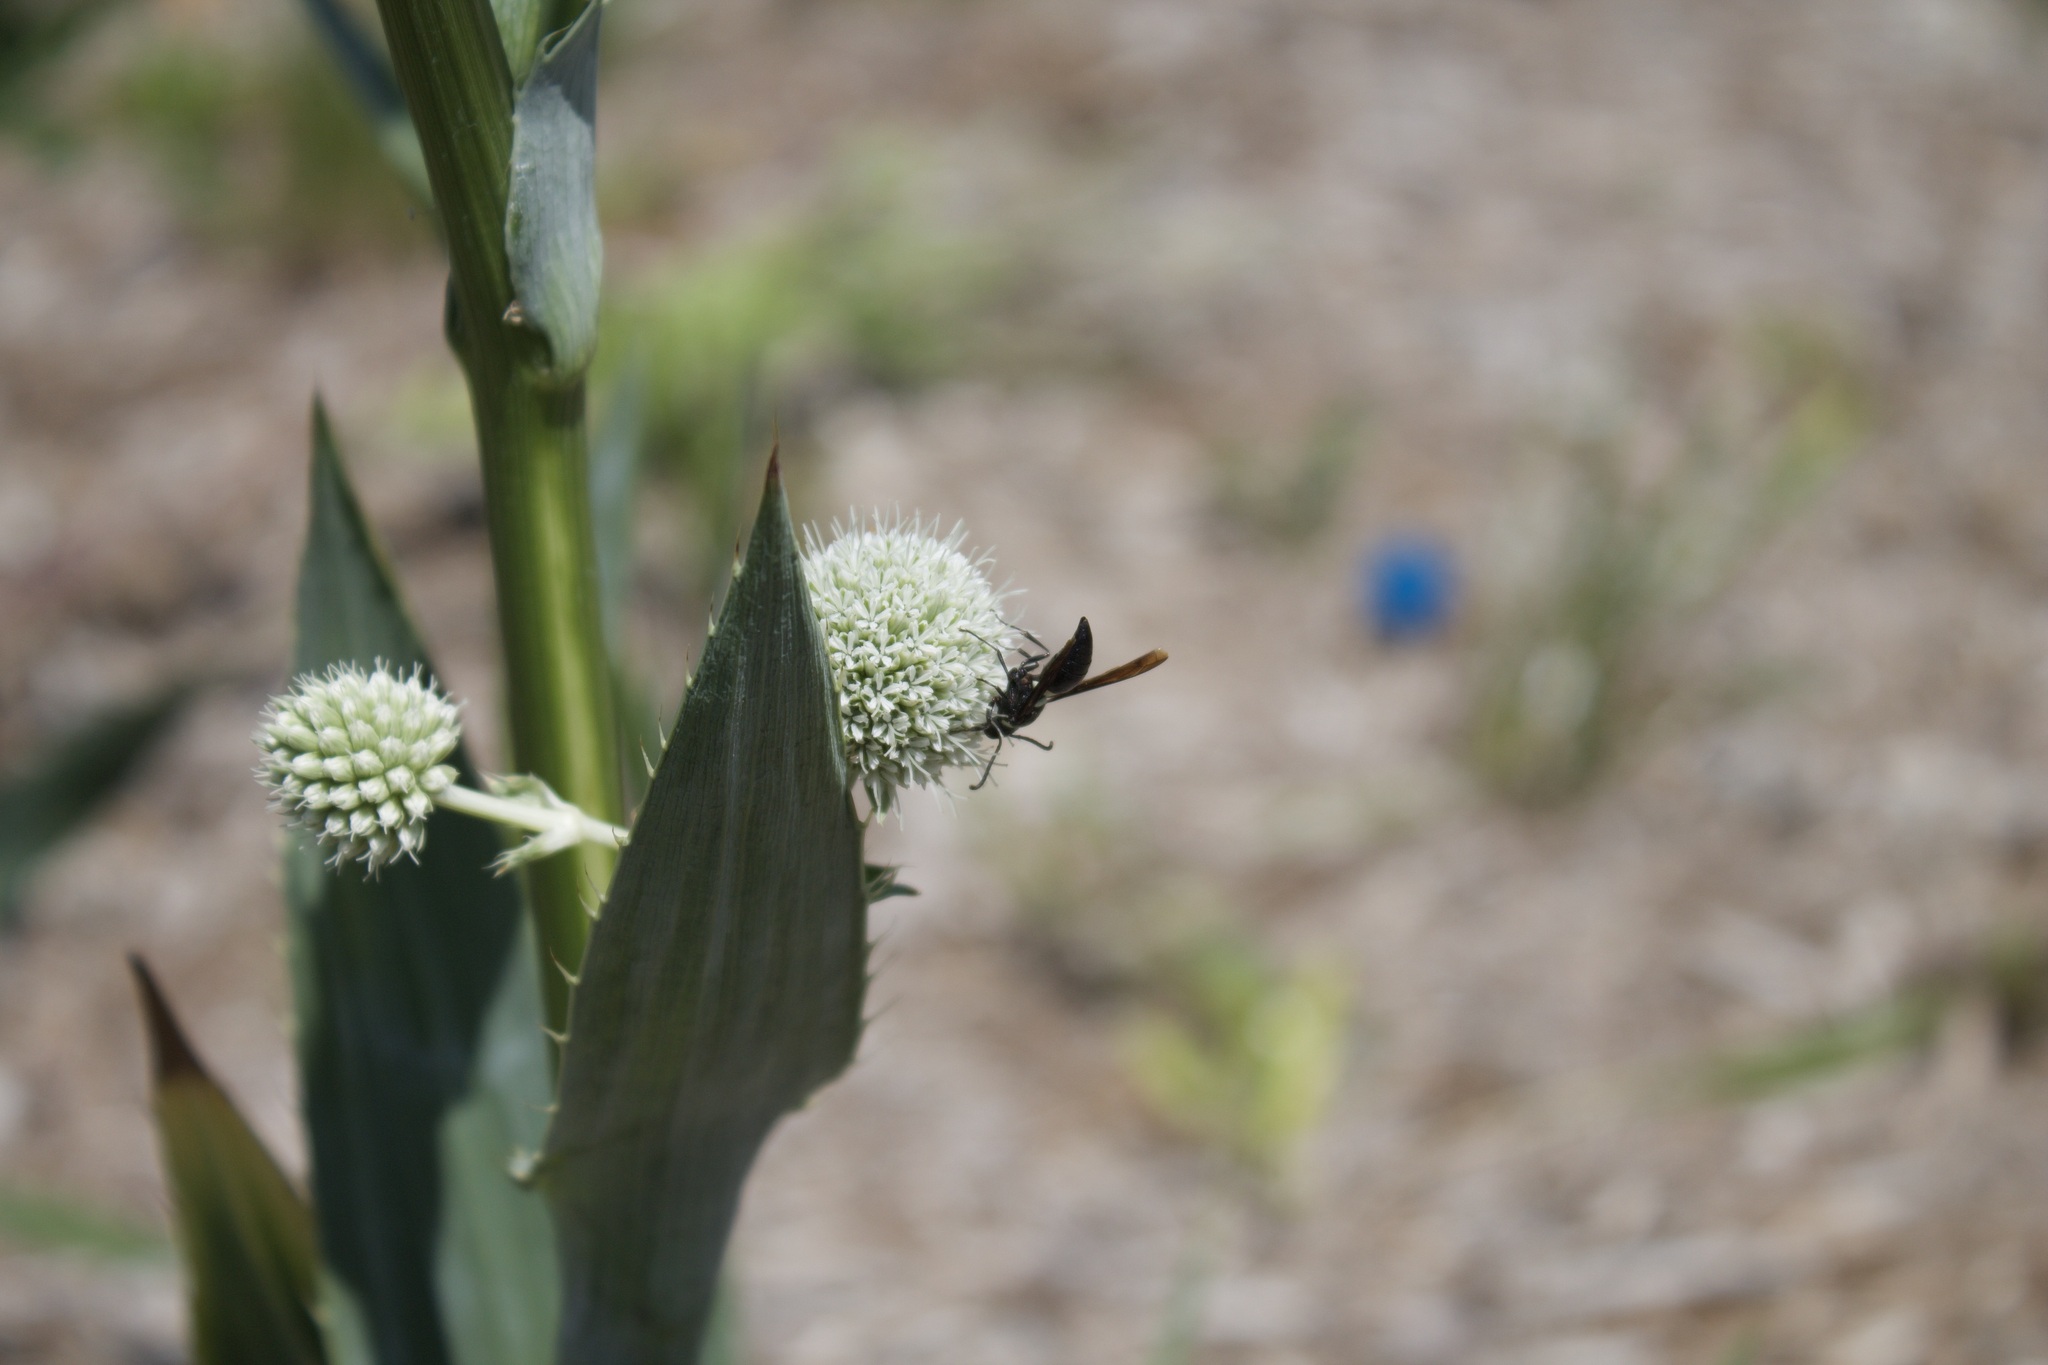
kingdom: Animalia
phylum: Arthropoda
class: Insecta
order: Hymenoptera
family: Eumenidae
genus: Monobia
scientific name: Monobia quadridens
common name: Four-toothed mason wasp
